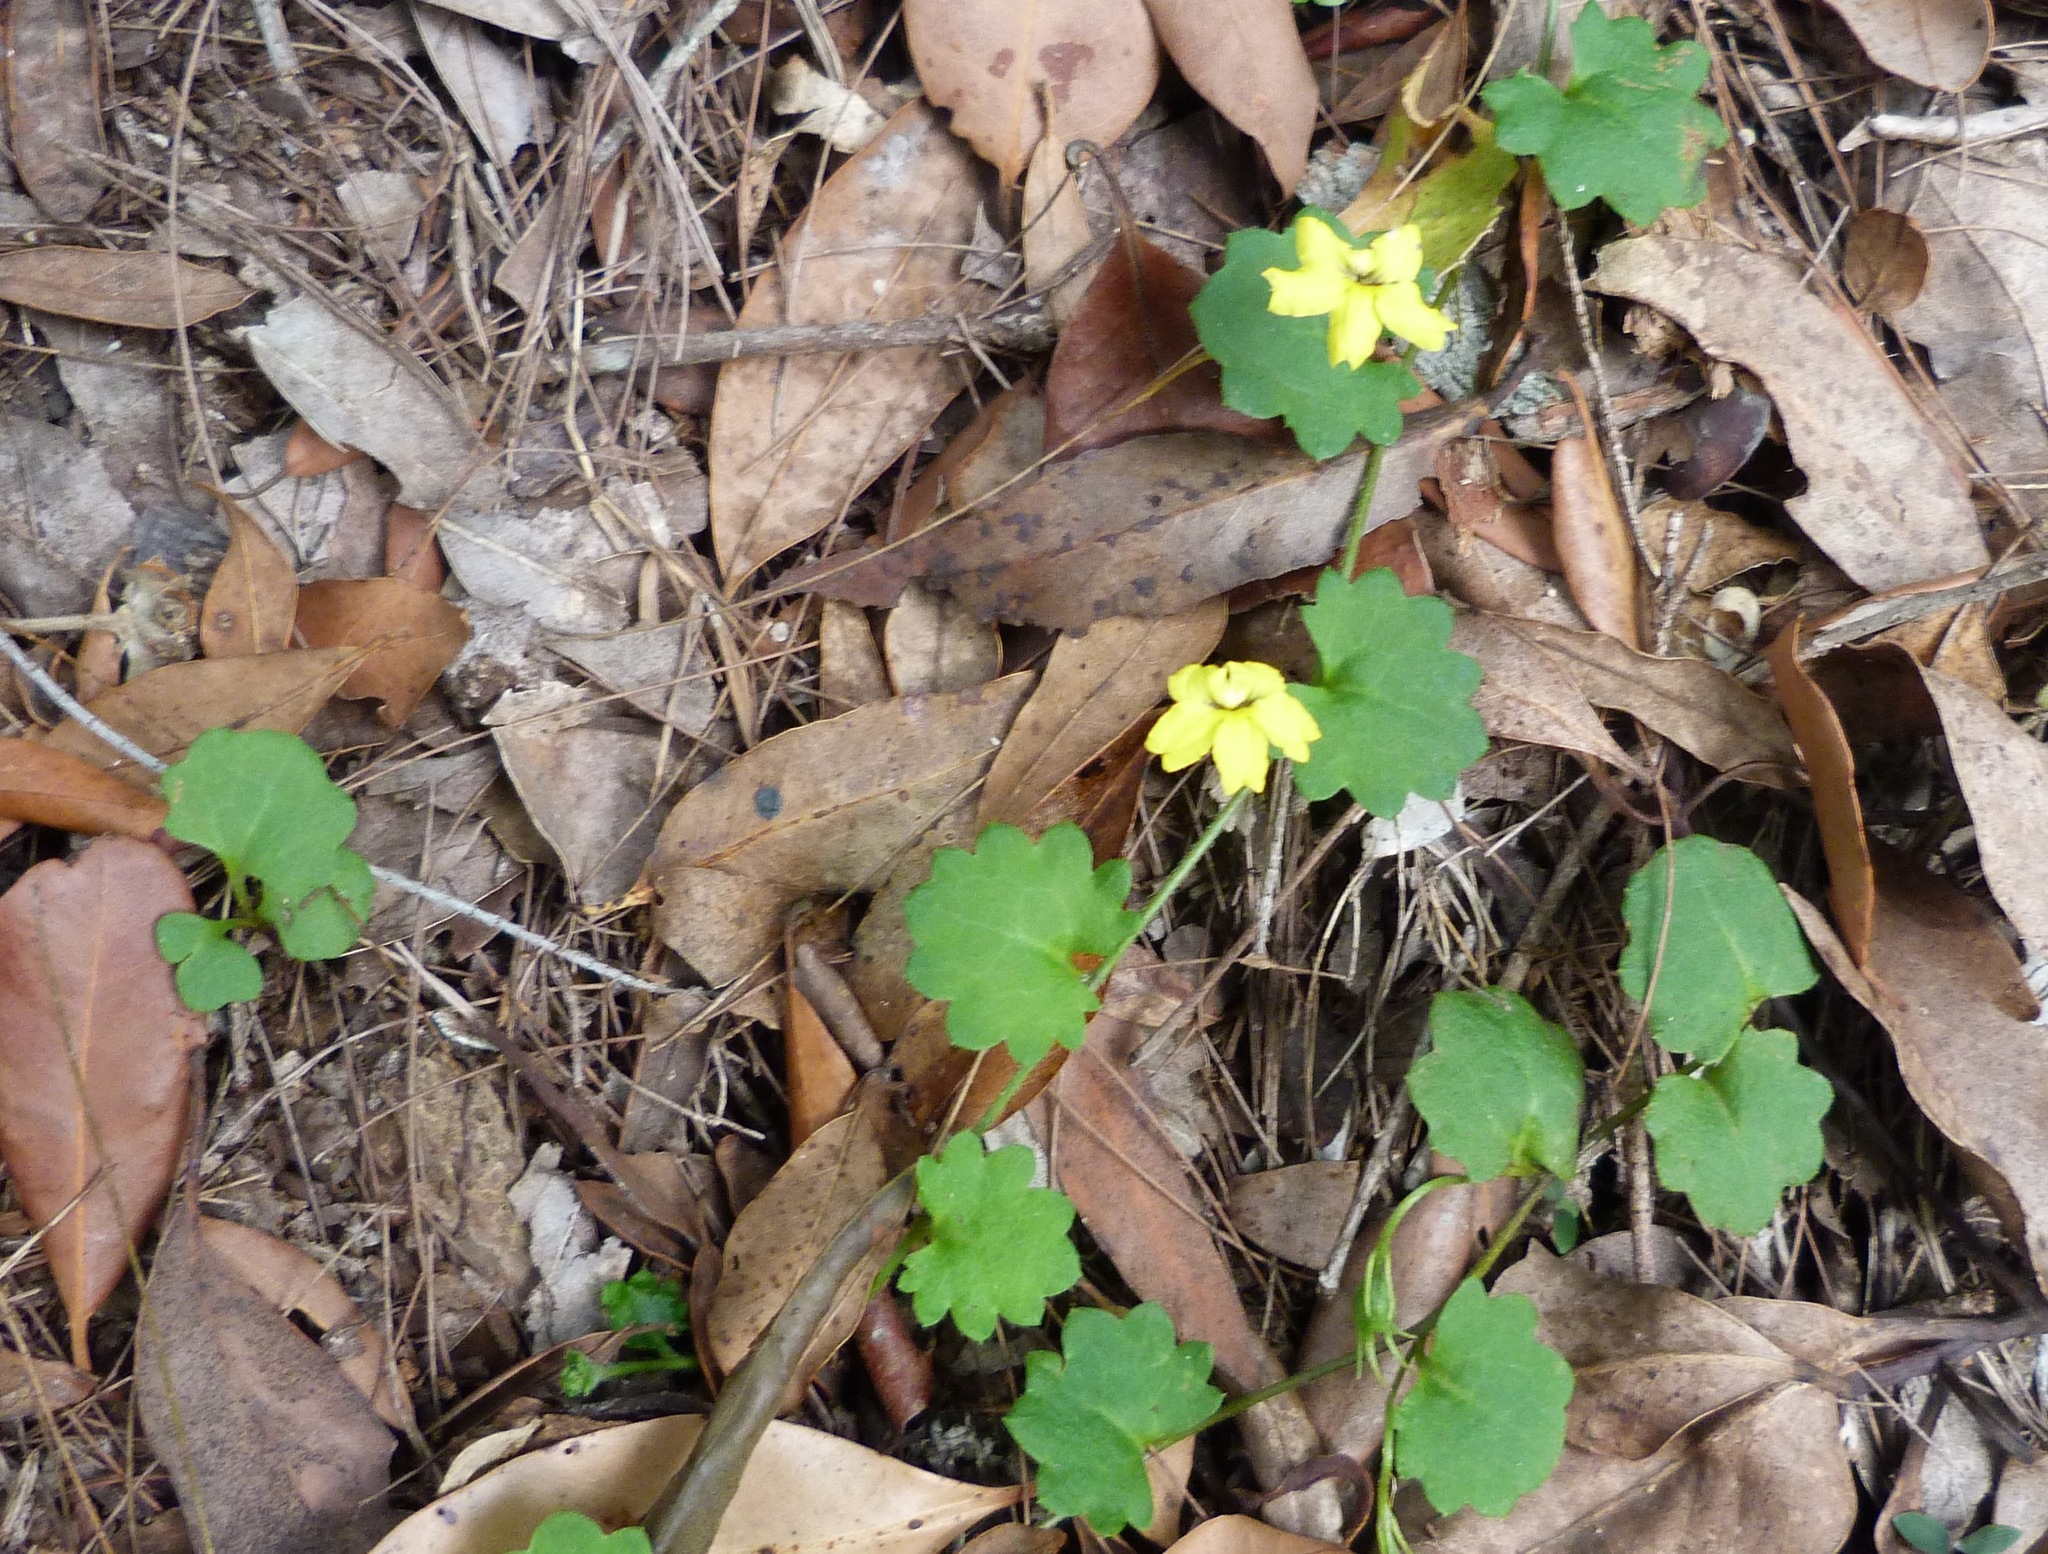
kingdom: Plantae
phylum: Tracheophyta
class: Magnoliopsida
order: Asterales
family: Goodeniaceae
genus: Goodenia
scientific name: Goodenia rotundifolia
